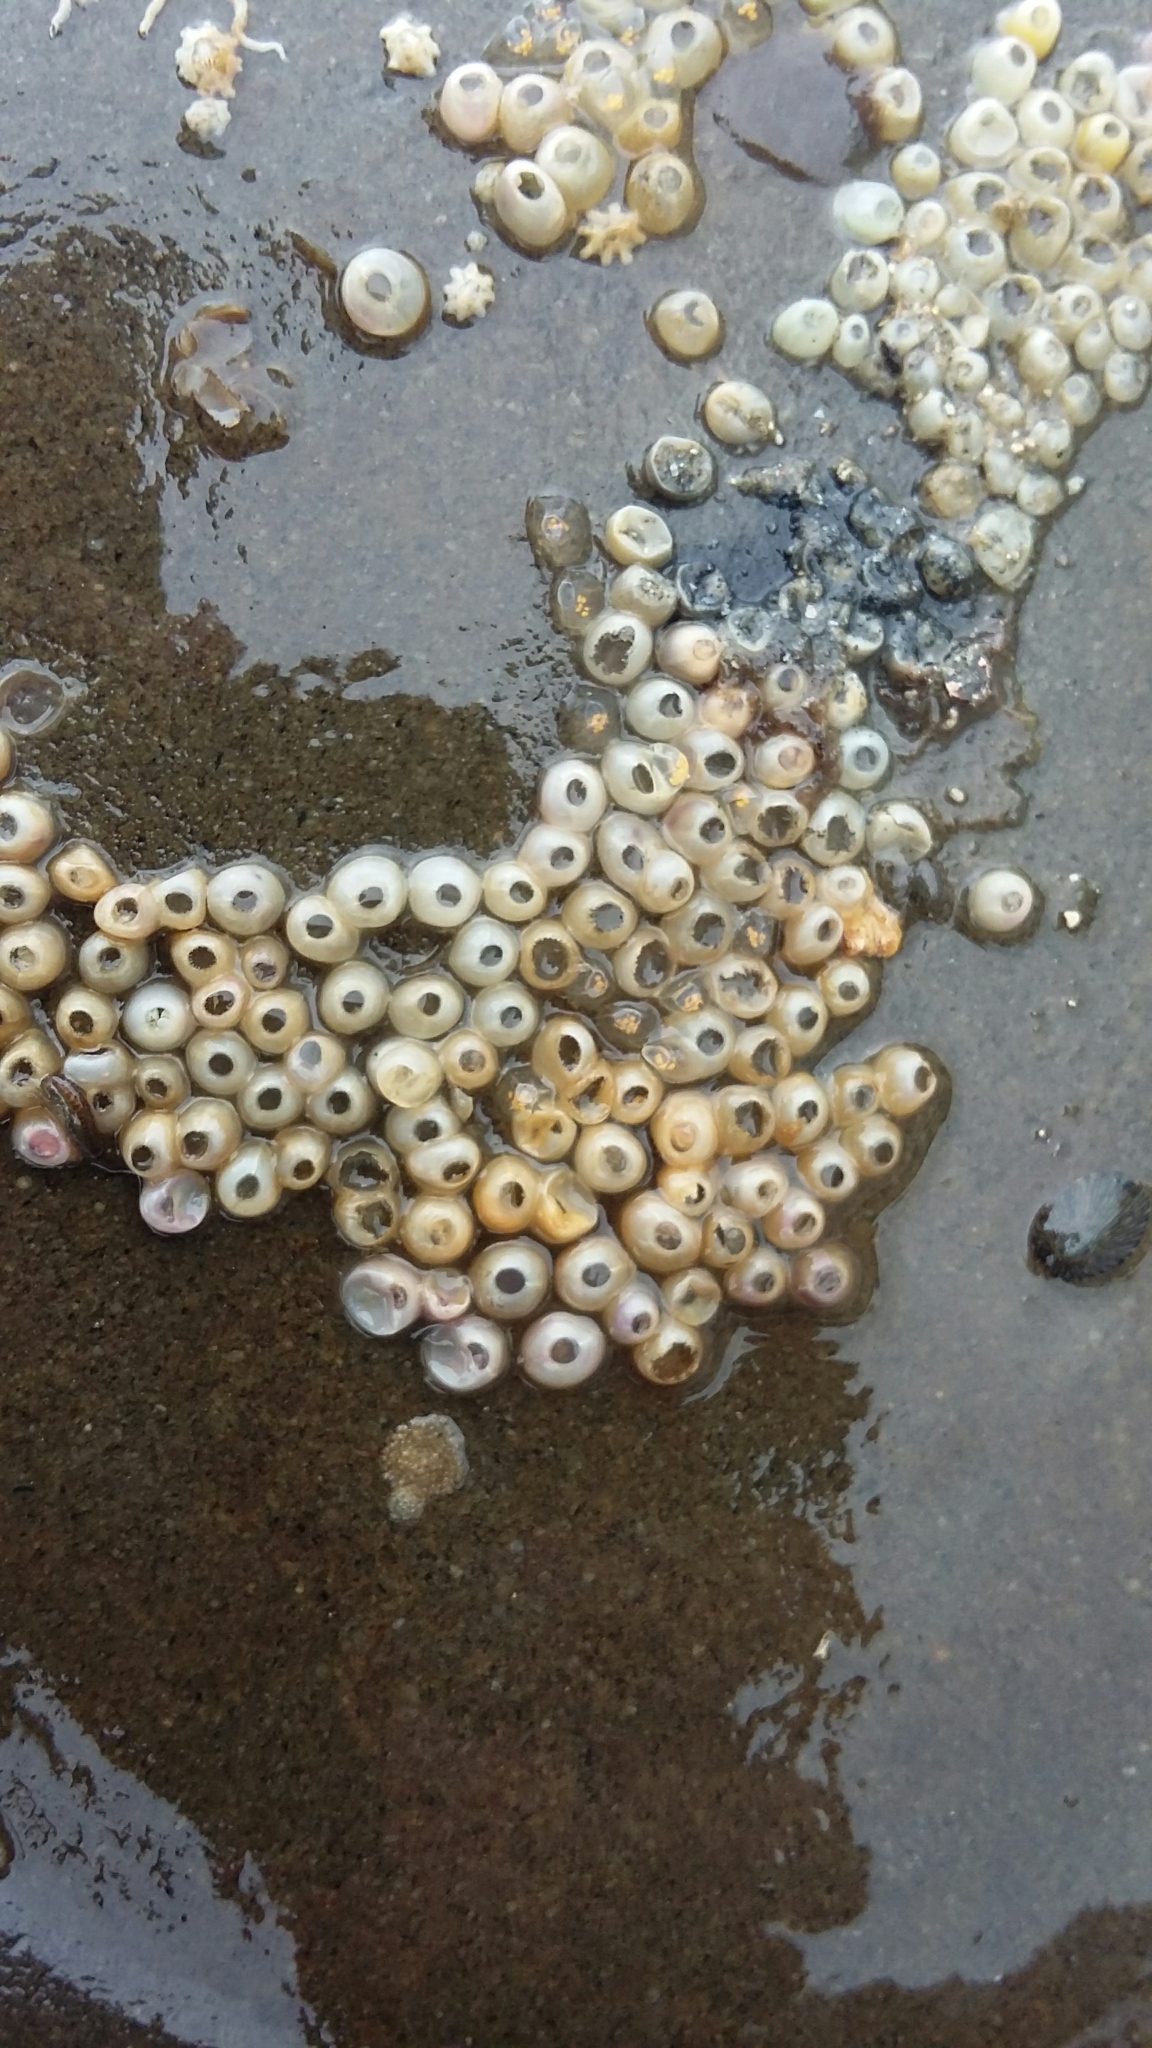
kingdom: Animalia
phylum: Mollusca
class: Gastropoda
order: Neogastropoda
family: Muricidae
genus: Haustrum
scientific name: Haustrum
